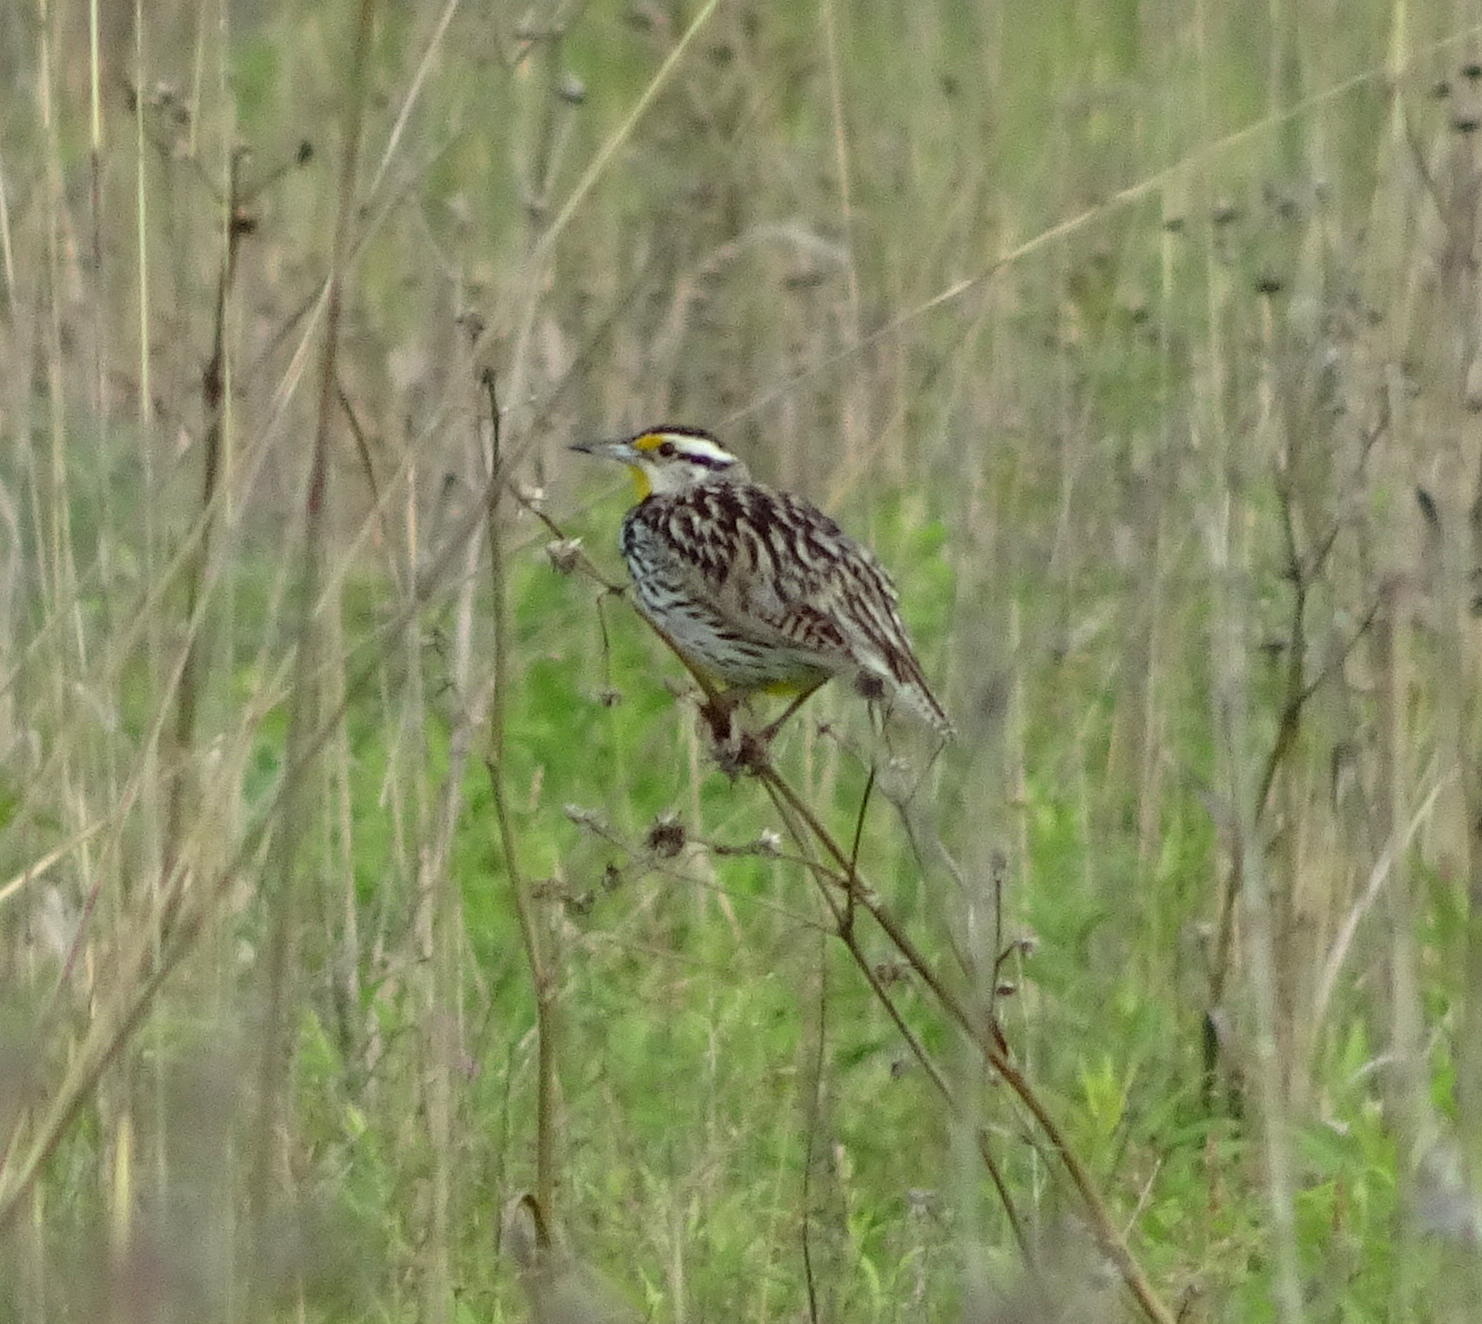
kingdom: Animalia
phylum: Chordata
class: Aves
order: Passeriformes
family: Icteridae
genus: Sturnella
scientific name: Sturnella magna
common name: Eastern meadowlark
